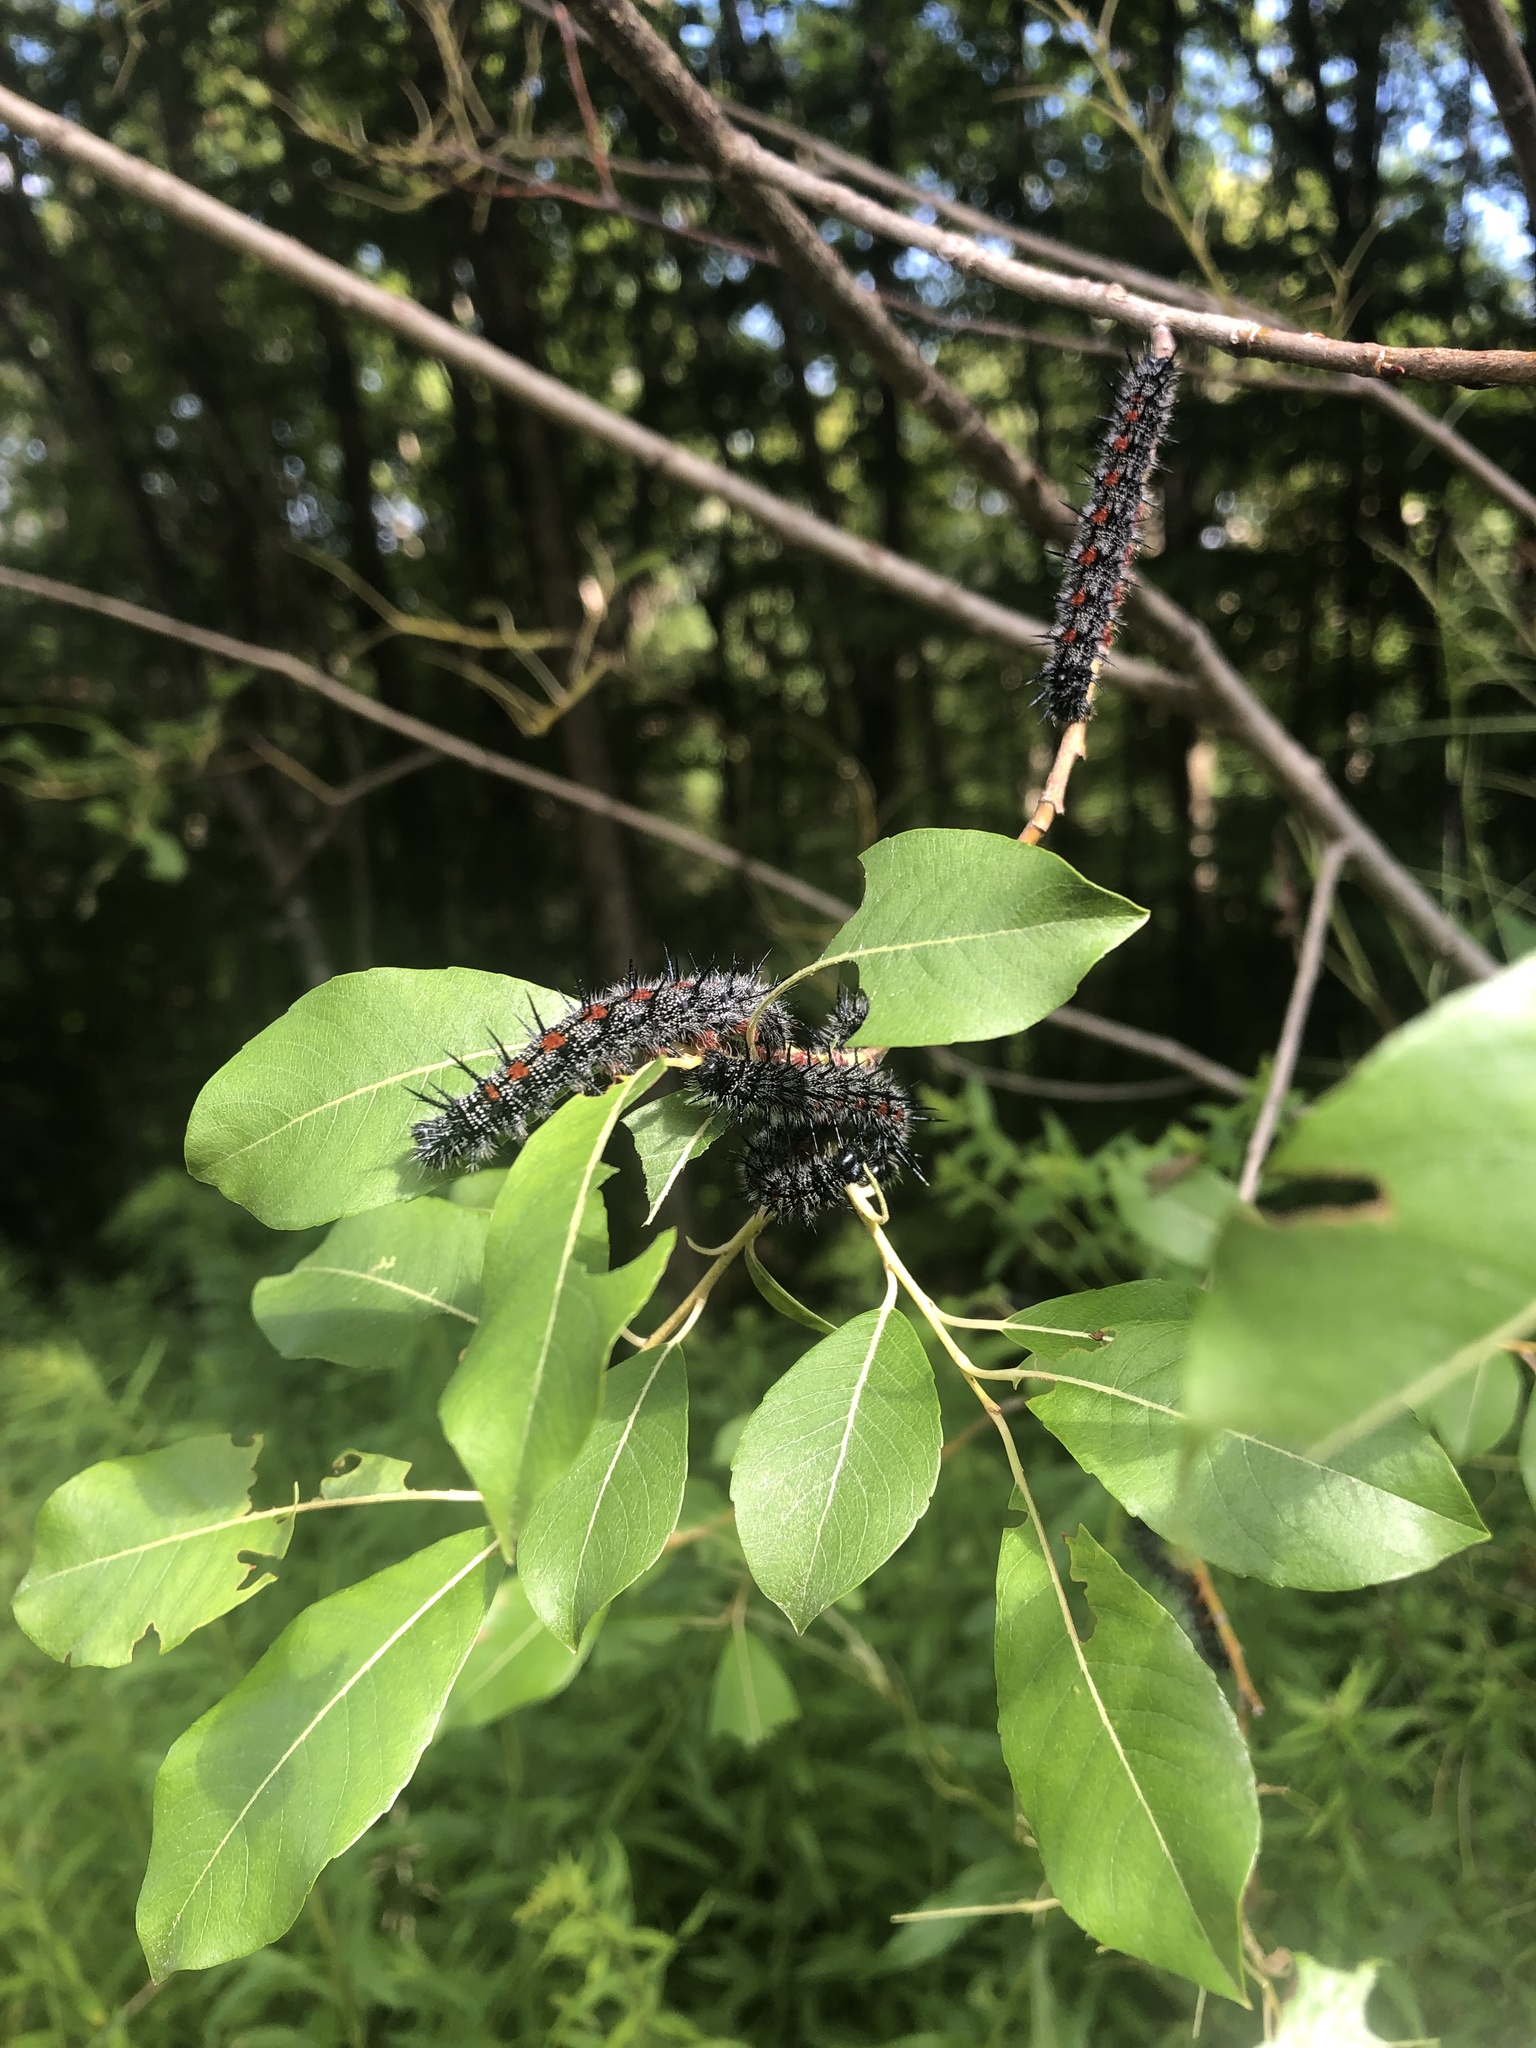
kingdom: Animalia
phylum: Arthropoda
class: Insecta
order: Lepidoptera
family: Nymphalidae
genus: Nymphalis
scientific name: Nymphalis antiopa
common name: Camberwell beauty
